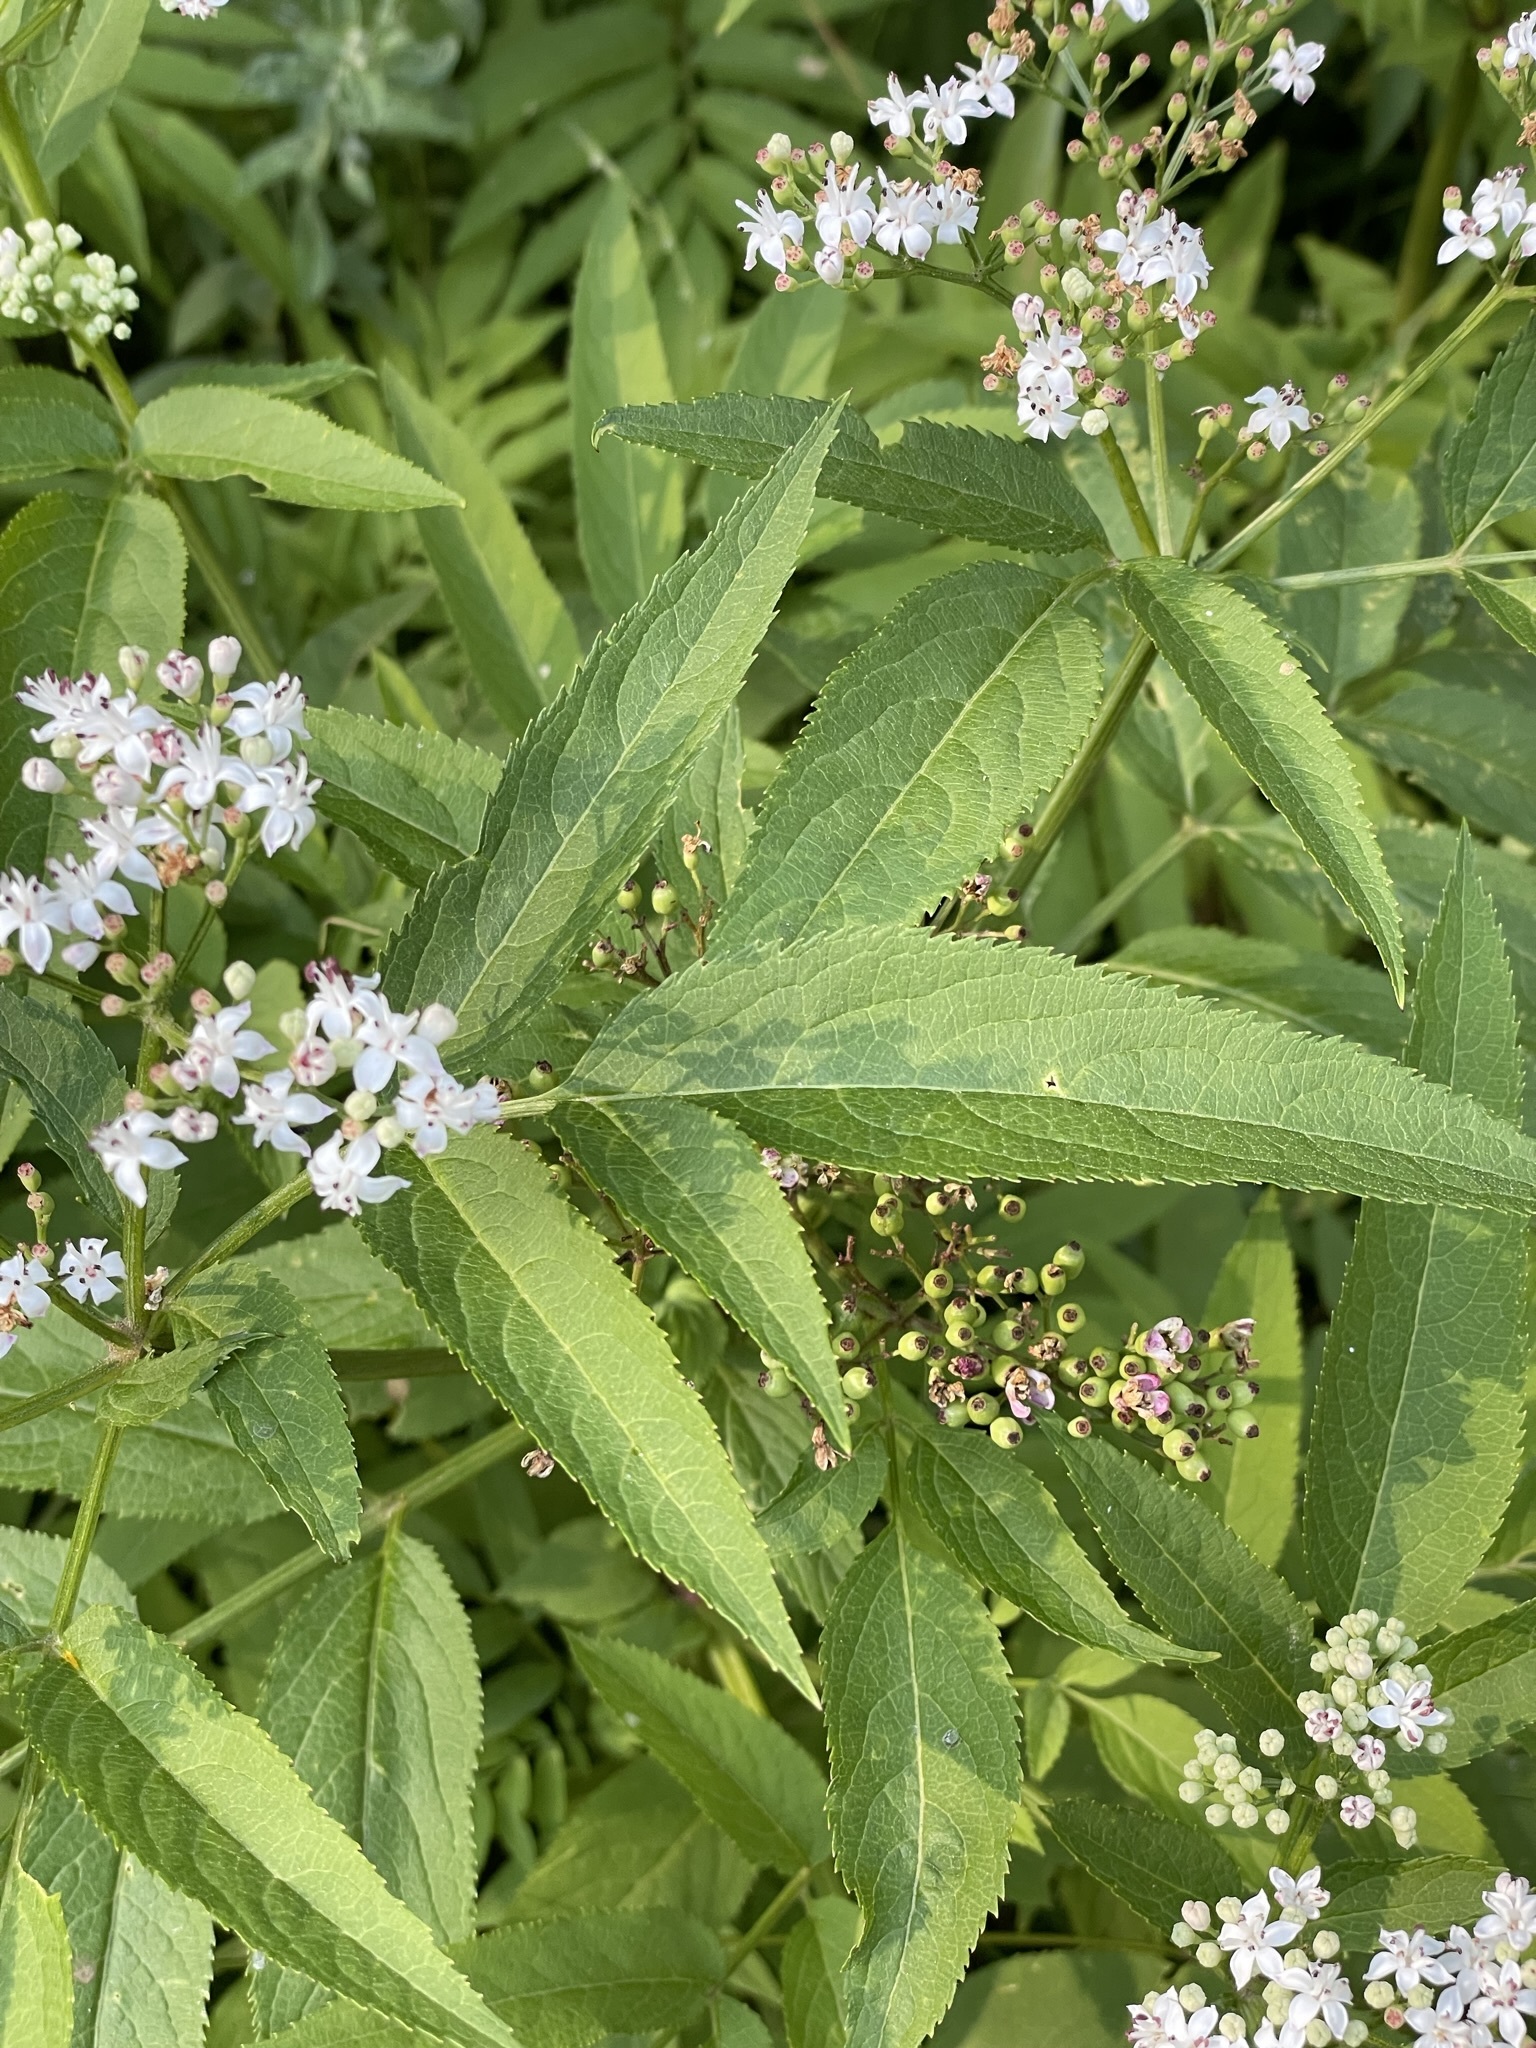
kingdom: Plantae
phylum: Tracheophyta
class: Magnoliopsida
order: Dipsacales
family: Viburnaceae
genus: Sambucus
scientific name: Sambucus ebulus
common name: Dwarf elder
